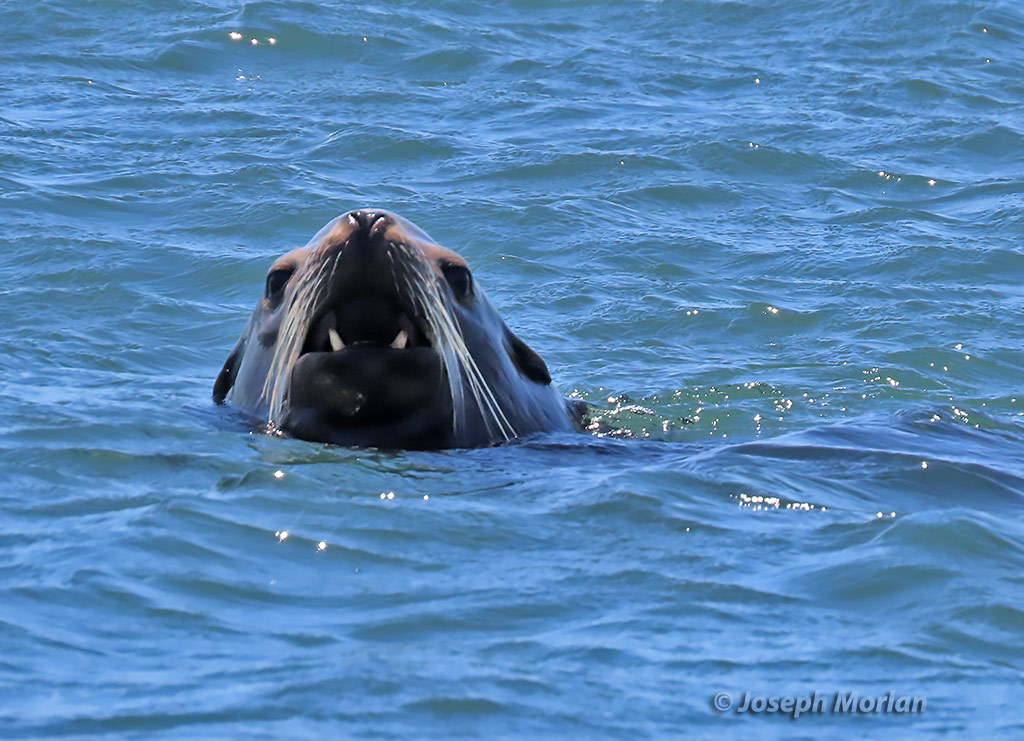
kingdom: Animalia
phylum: Chordata
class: Mammalia
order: Carnivora
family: Otariidae
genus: Zalophus
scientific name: Zalophus californianus
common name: California sea lion
